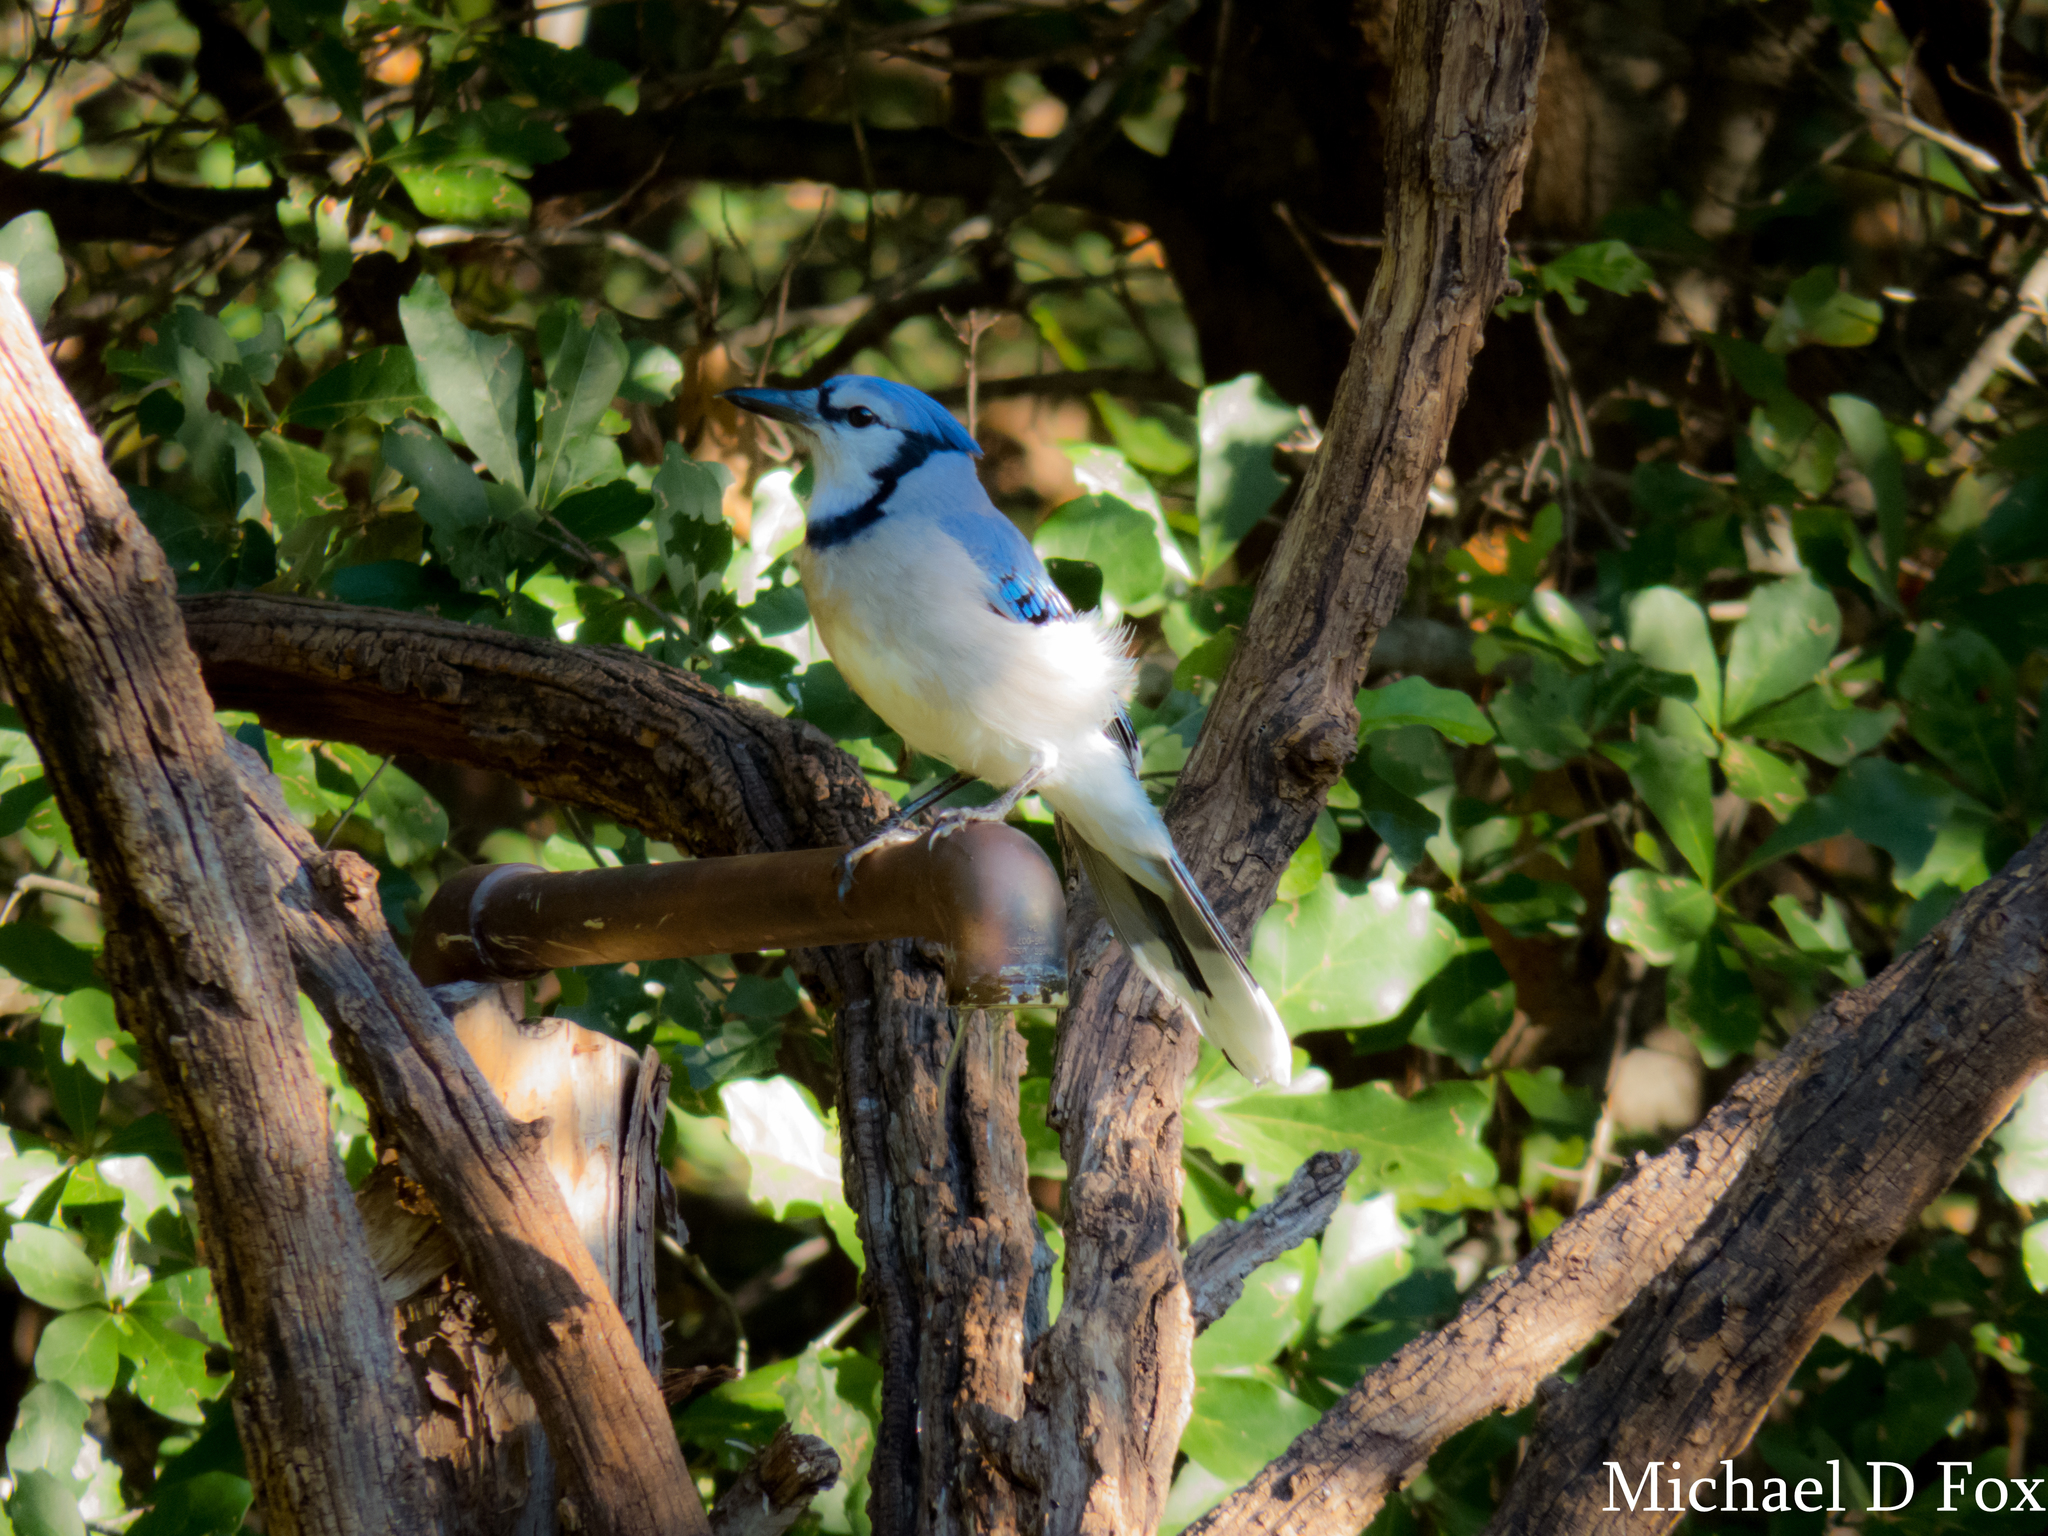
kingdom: Animalia
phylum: Chordata
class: Aves
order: Passeriformes
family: Corvidae
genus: Cyanocitta
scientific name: Cyanocitta cristata
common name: Blue jay
